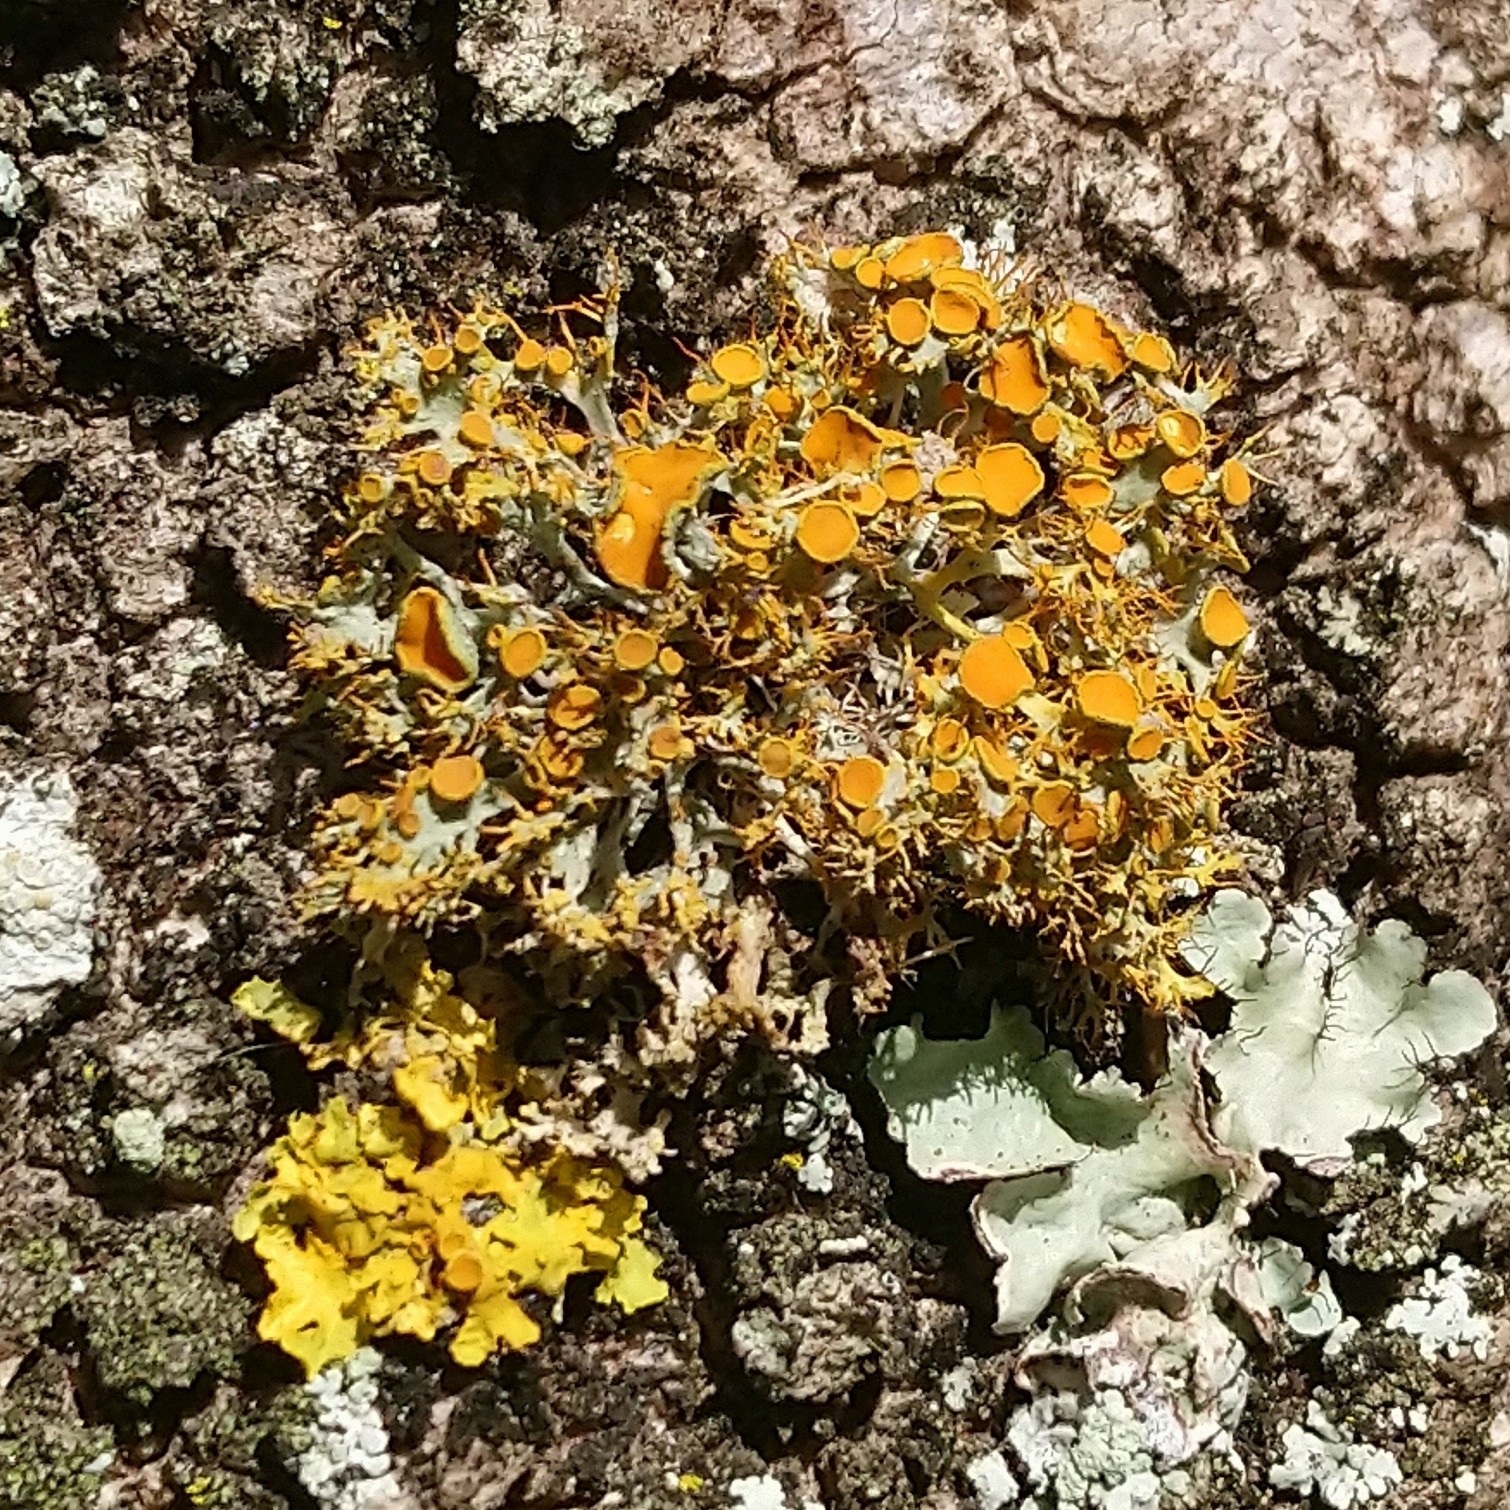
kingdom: Fungi
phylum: Ascomycota
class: Lecanoromycetes
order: Teloschistales
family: Teloschistaceae
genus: Teloschistes
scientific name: Teloschistes pulvinaris
